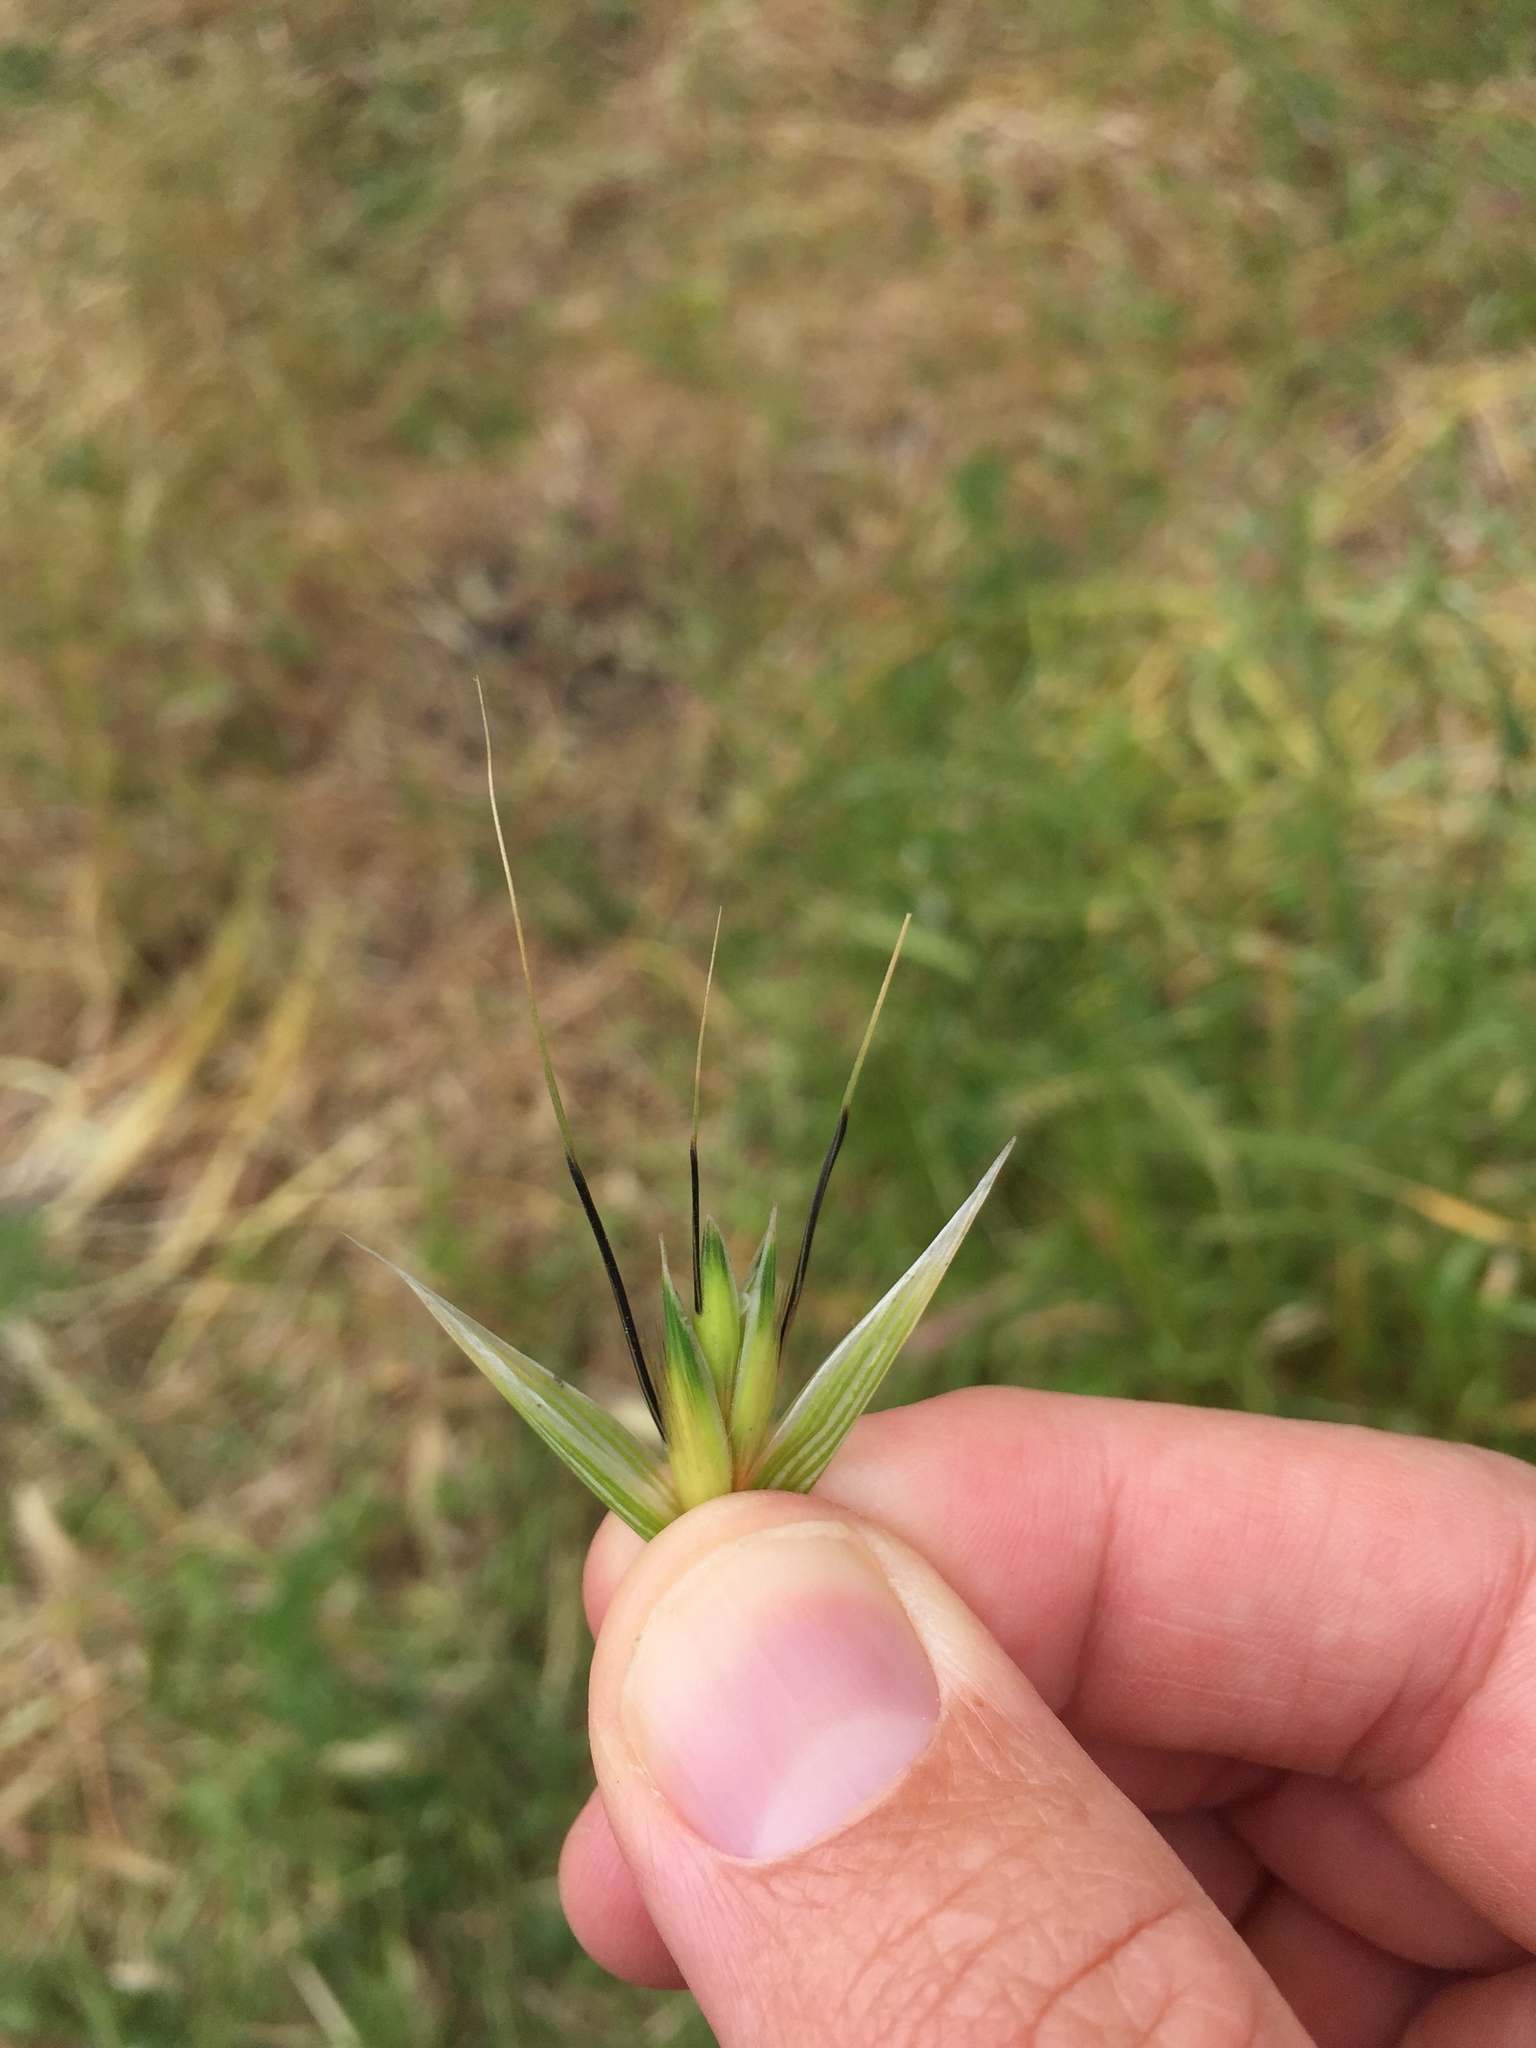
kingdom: Plantae
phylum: Tracheophyta
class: Liliopsida
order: Poales
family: Poaceae
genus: Avena
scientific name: Avena fatua
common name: Wild oat
